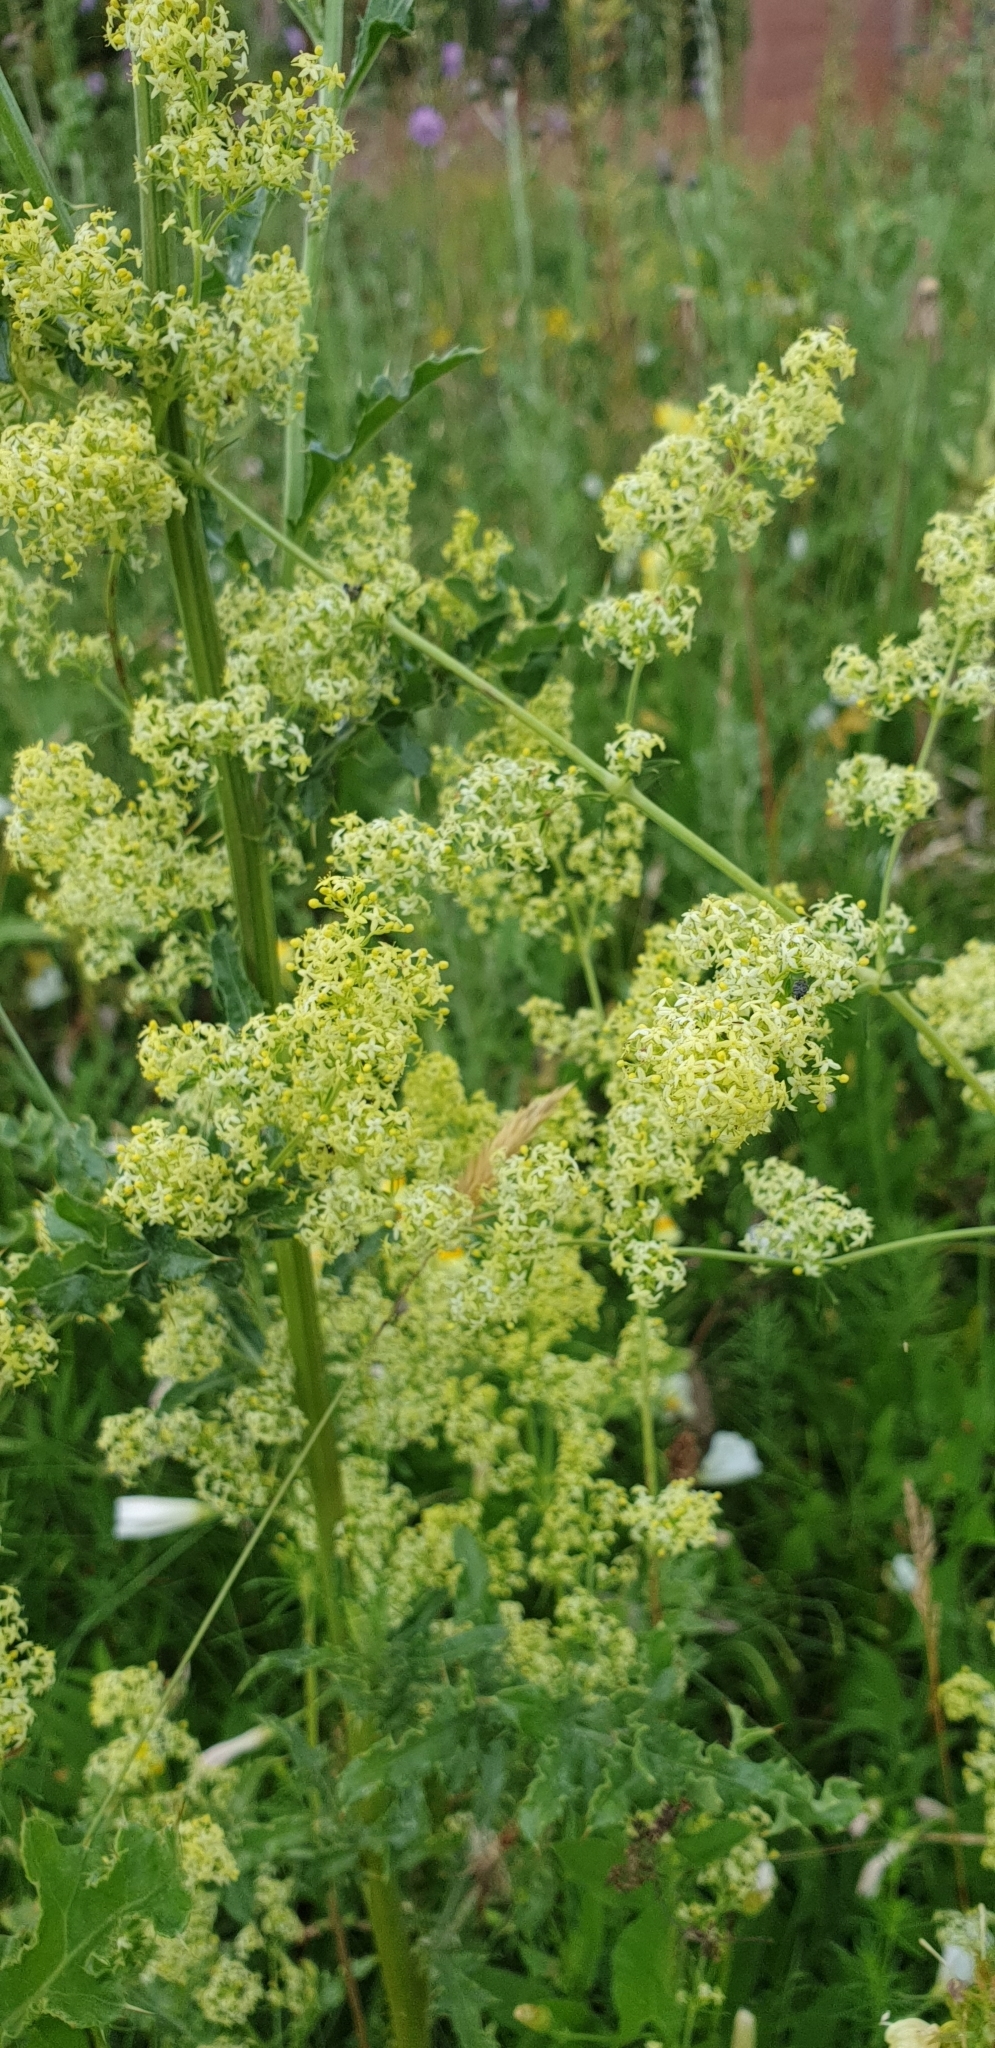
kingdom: Plantae
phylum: Tracheophyta
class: Magnoliopsida
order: Gentianales
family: Rubiaceae
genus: Galium
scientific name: Galium pomeranicum
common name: Bedstraw
